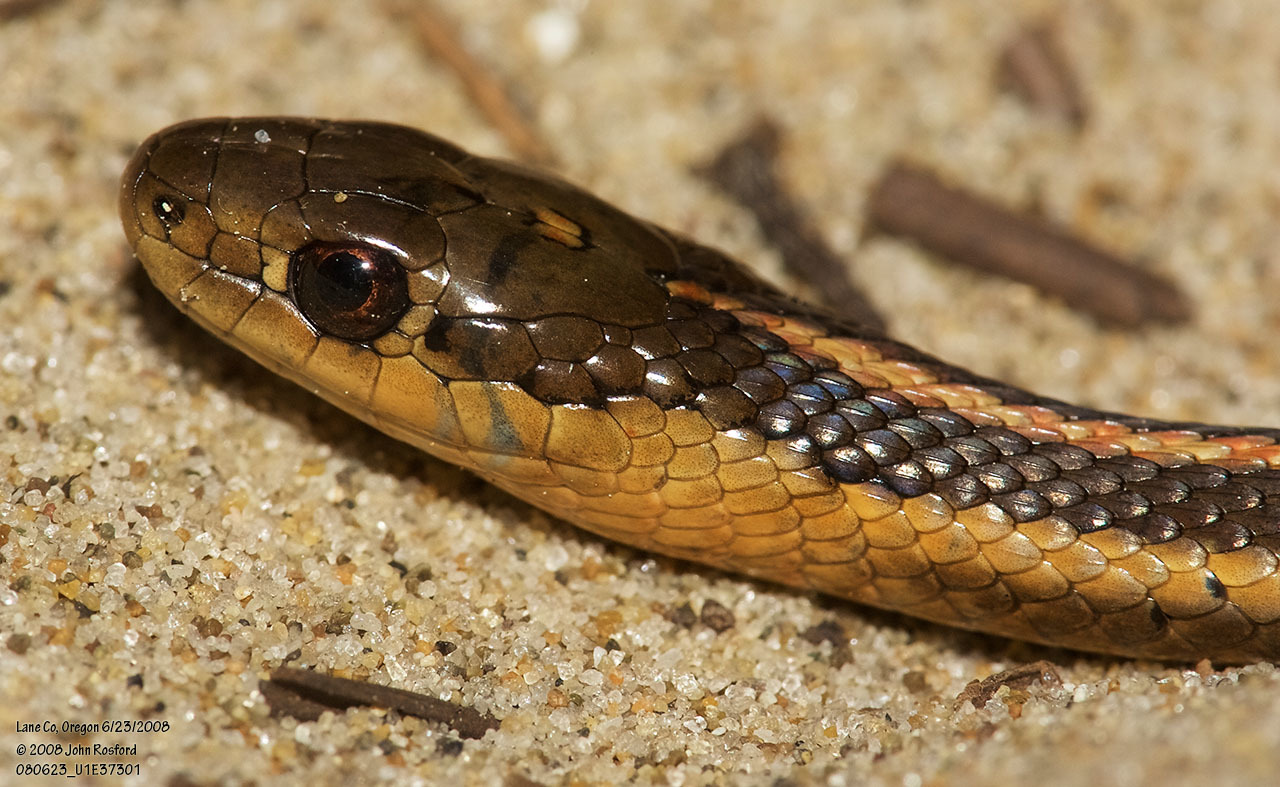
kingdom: Animalia
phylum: Chordata
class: Squamata
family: Colubridae
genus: Thamnophis
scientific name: Thamnophis ordinoides
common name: Northwestern garter snake
